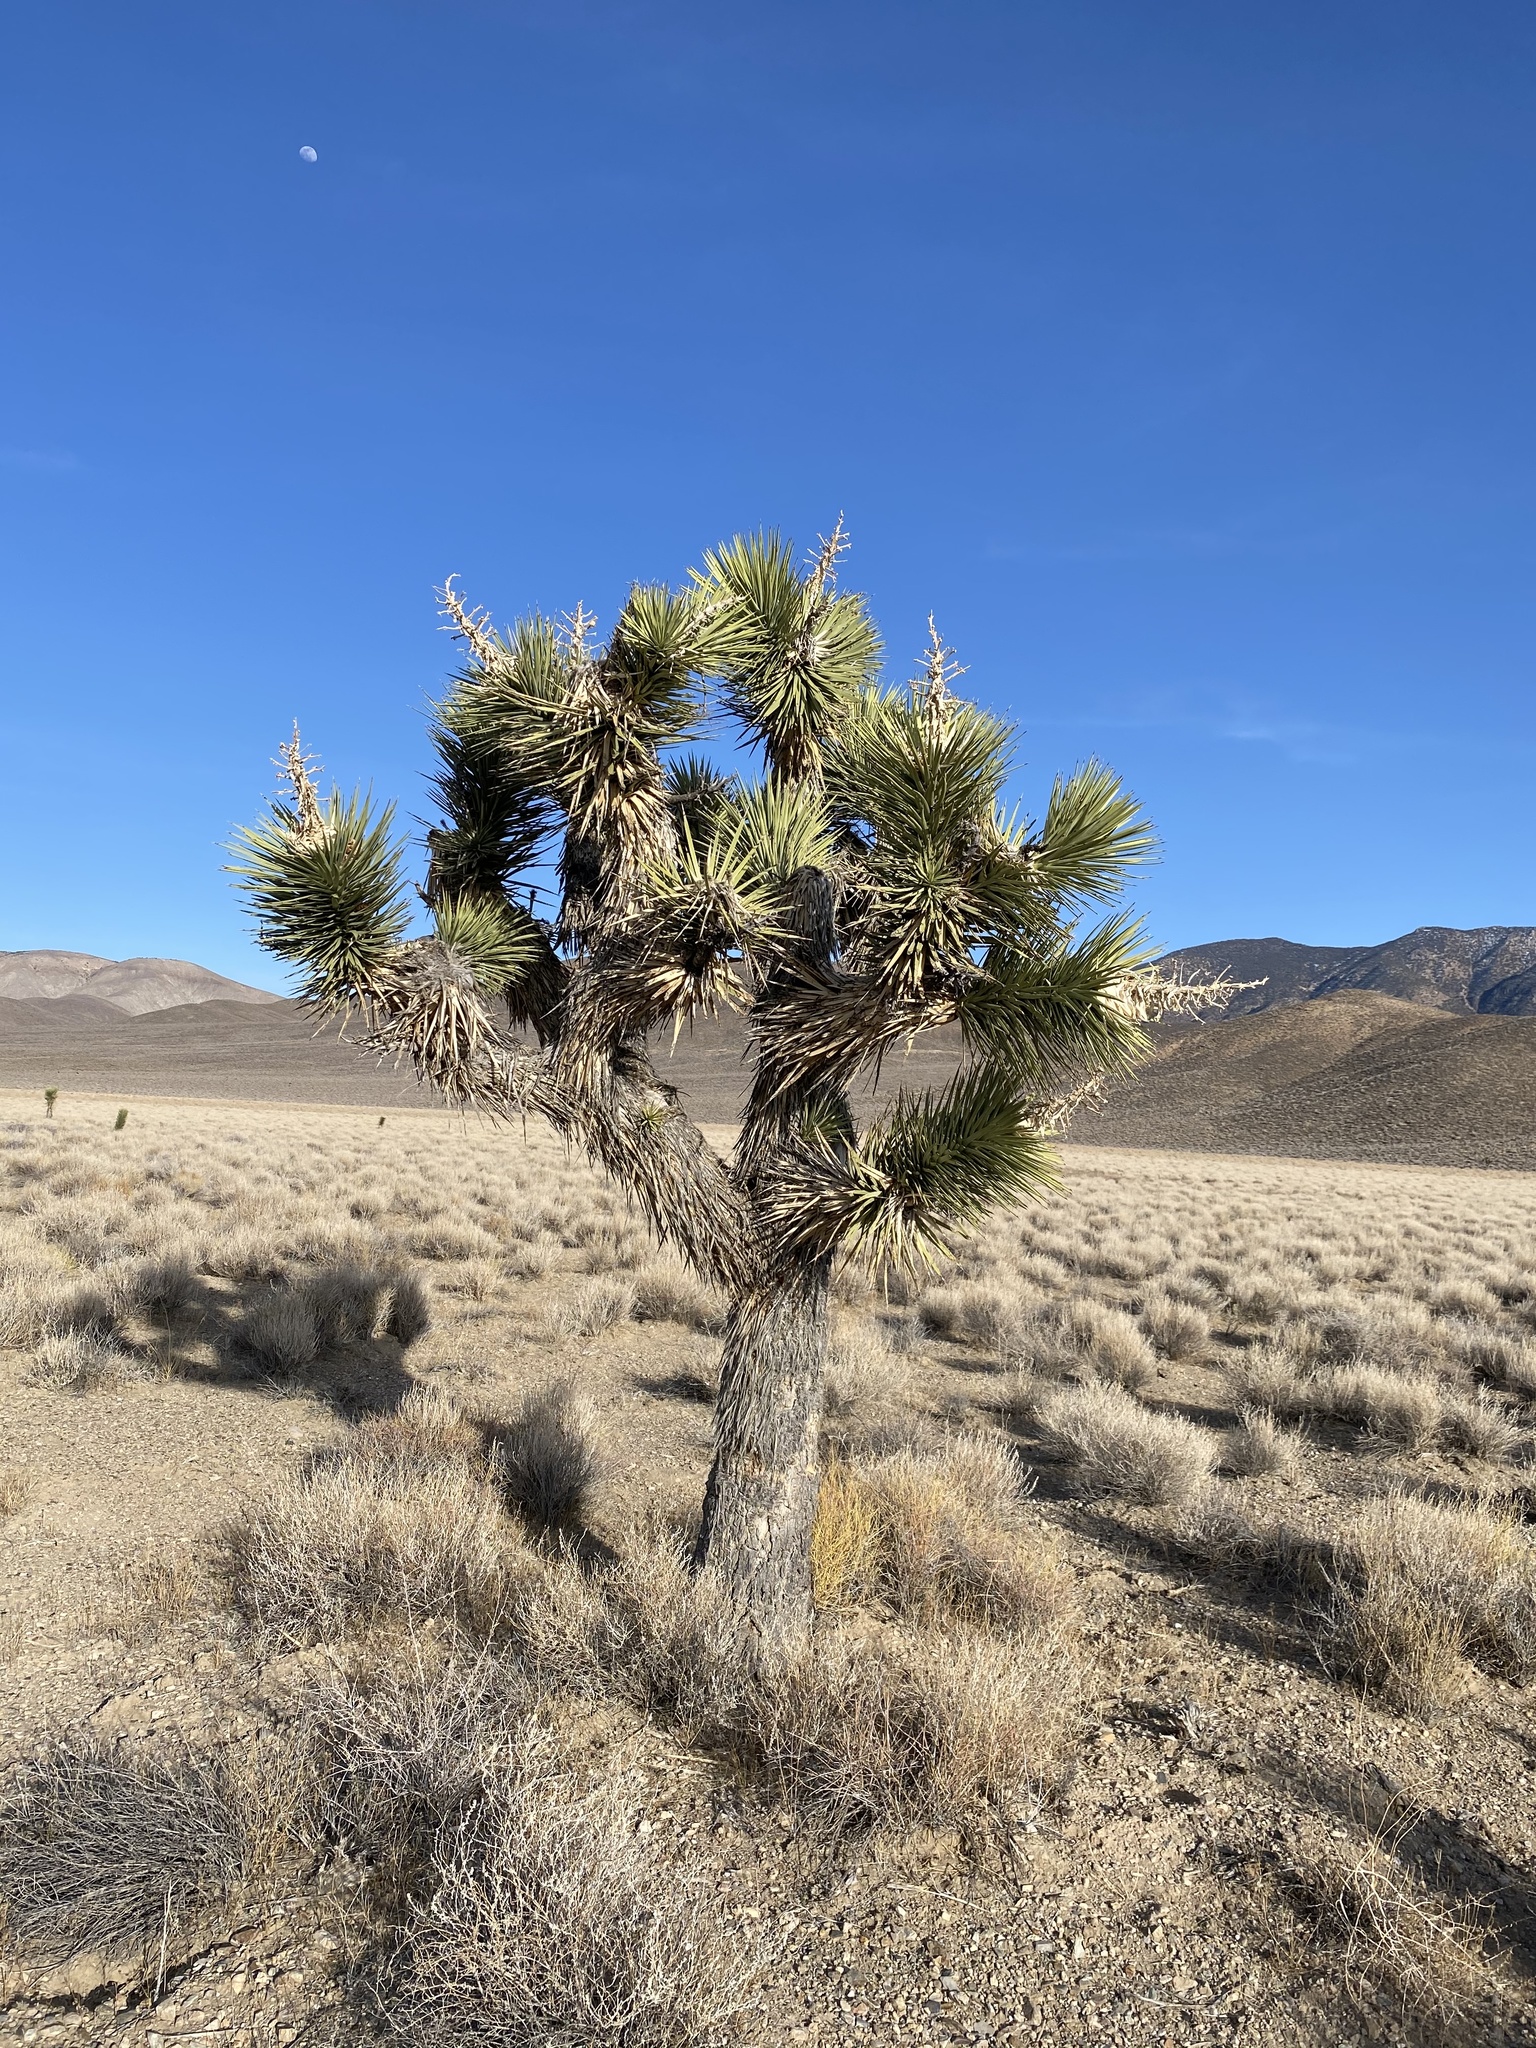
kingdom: Plantae
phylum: Tracheophyta
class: Liliopsida
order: Asparagales
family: Asparagaceae
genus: Yucca
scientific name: Yucca brevifolia
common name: Joshua tree
